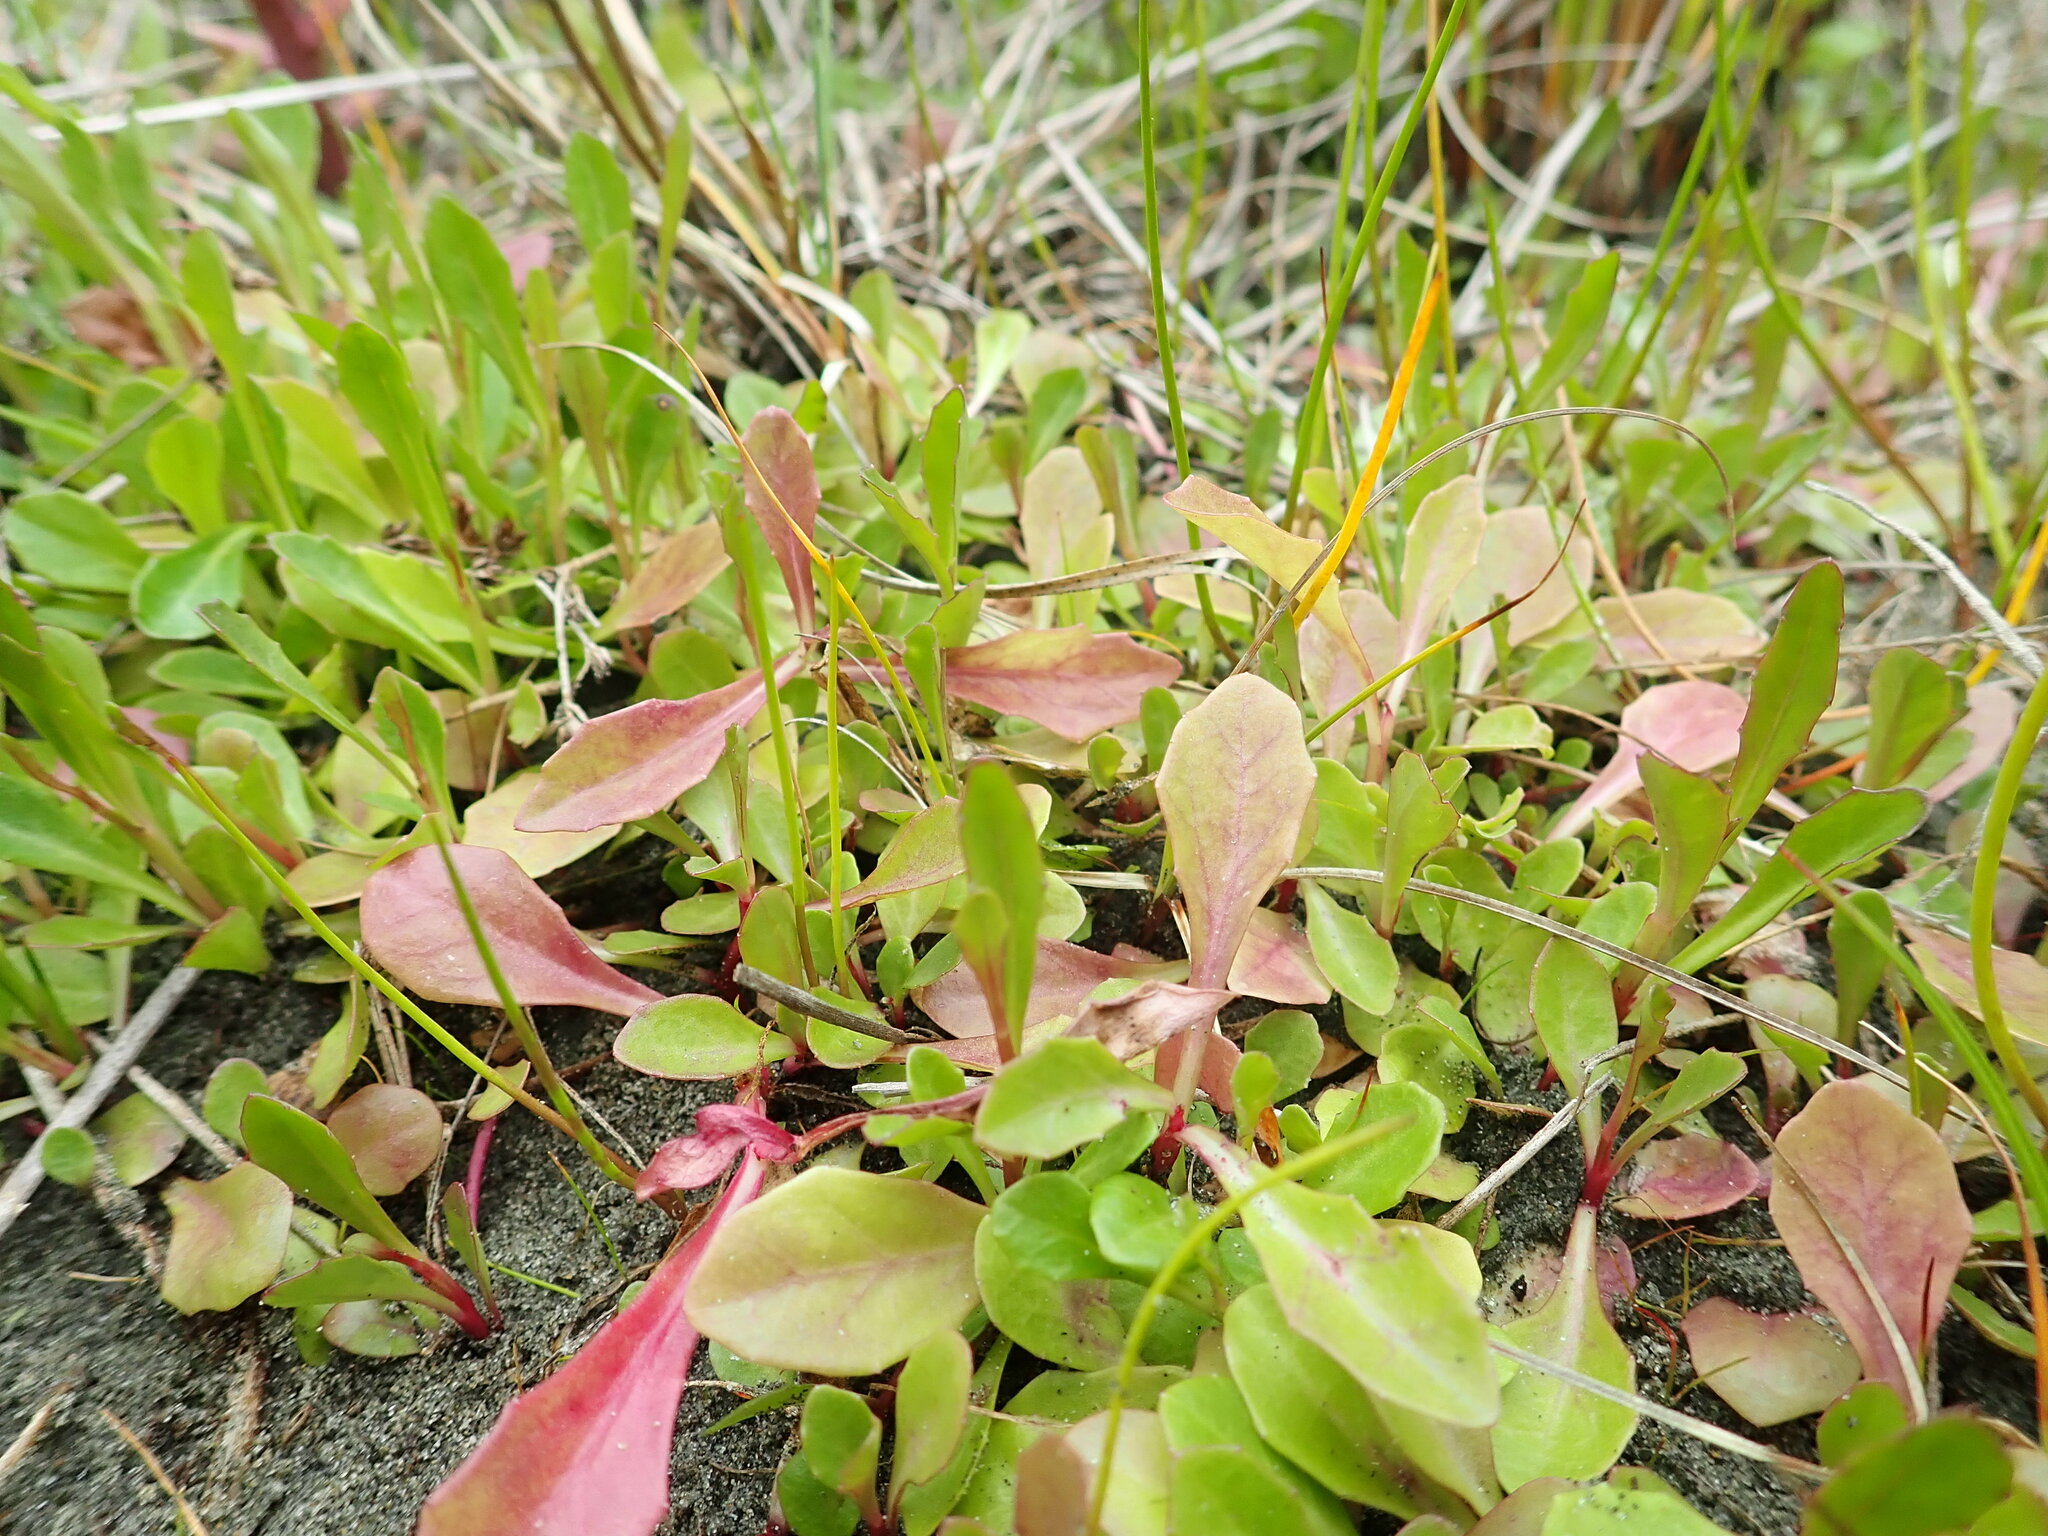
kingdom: Plantae
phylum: Tracheophyta
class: Magnoliopsida
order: Asterales
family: Campanulaceae
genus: Lobelia
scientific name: Lobelia anceps
